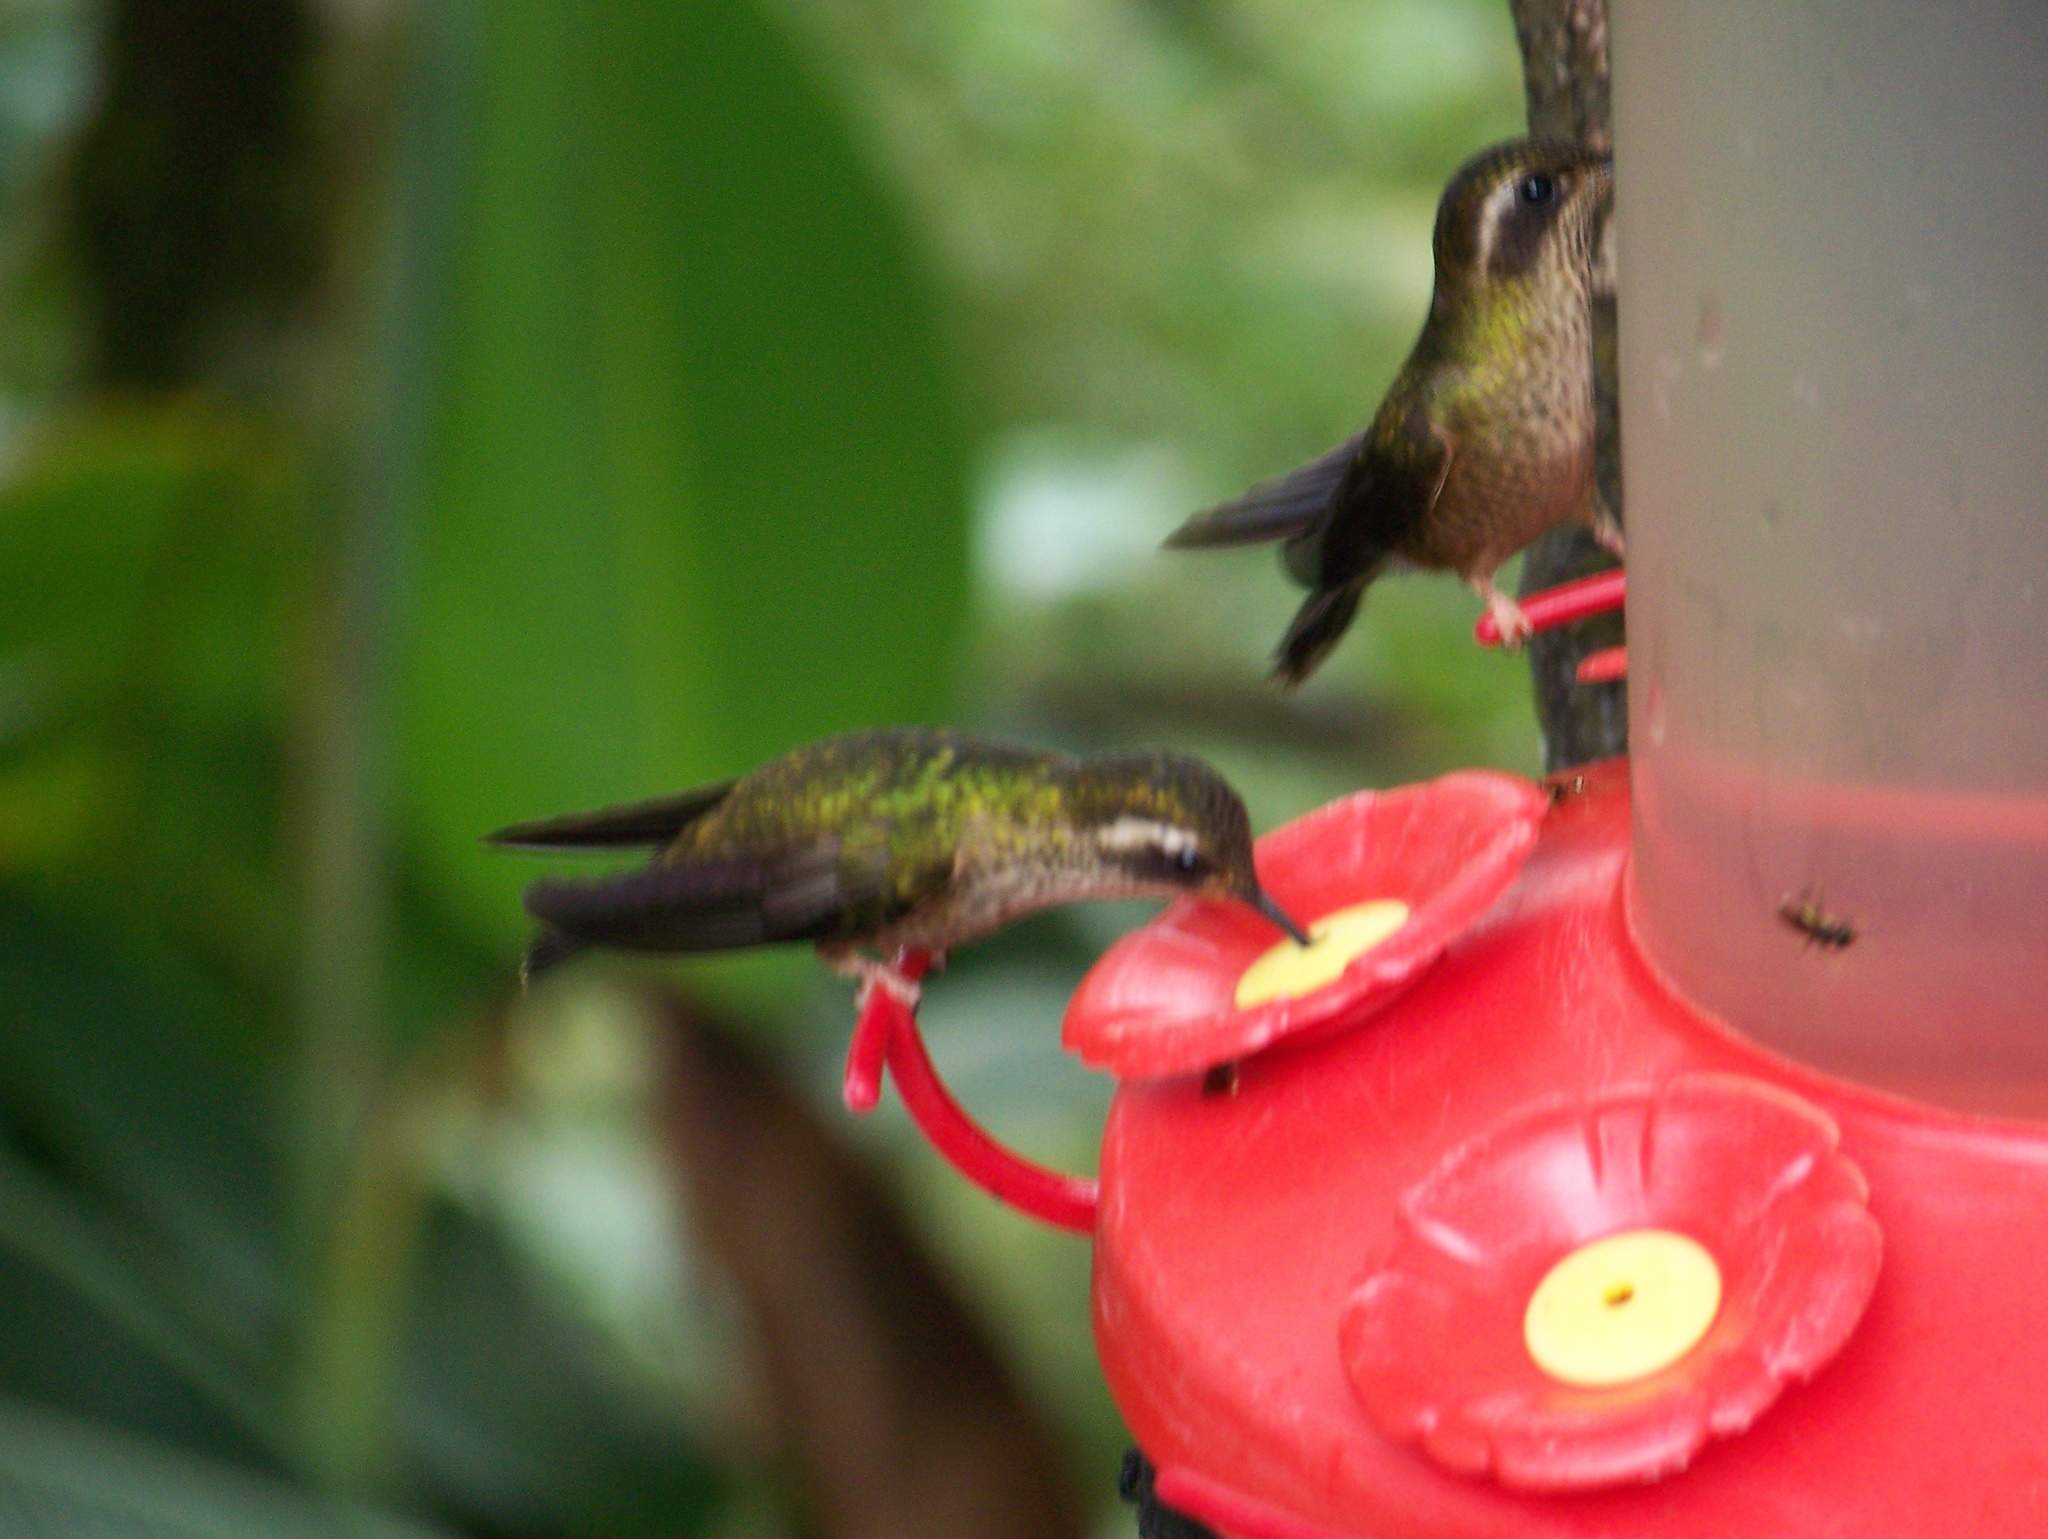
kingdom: Animalia
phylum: Chordata
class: Aves
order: Apodiformes
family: Trochilidae
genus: Adelomyia
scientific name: Adelomyia melanogenys
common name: Speckled hummingbird
